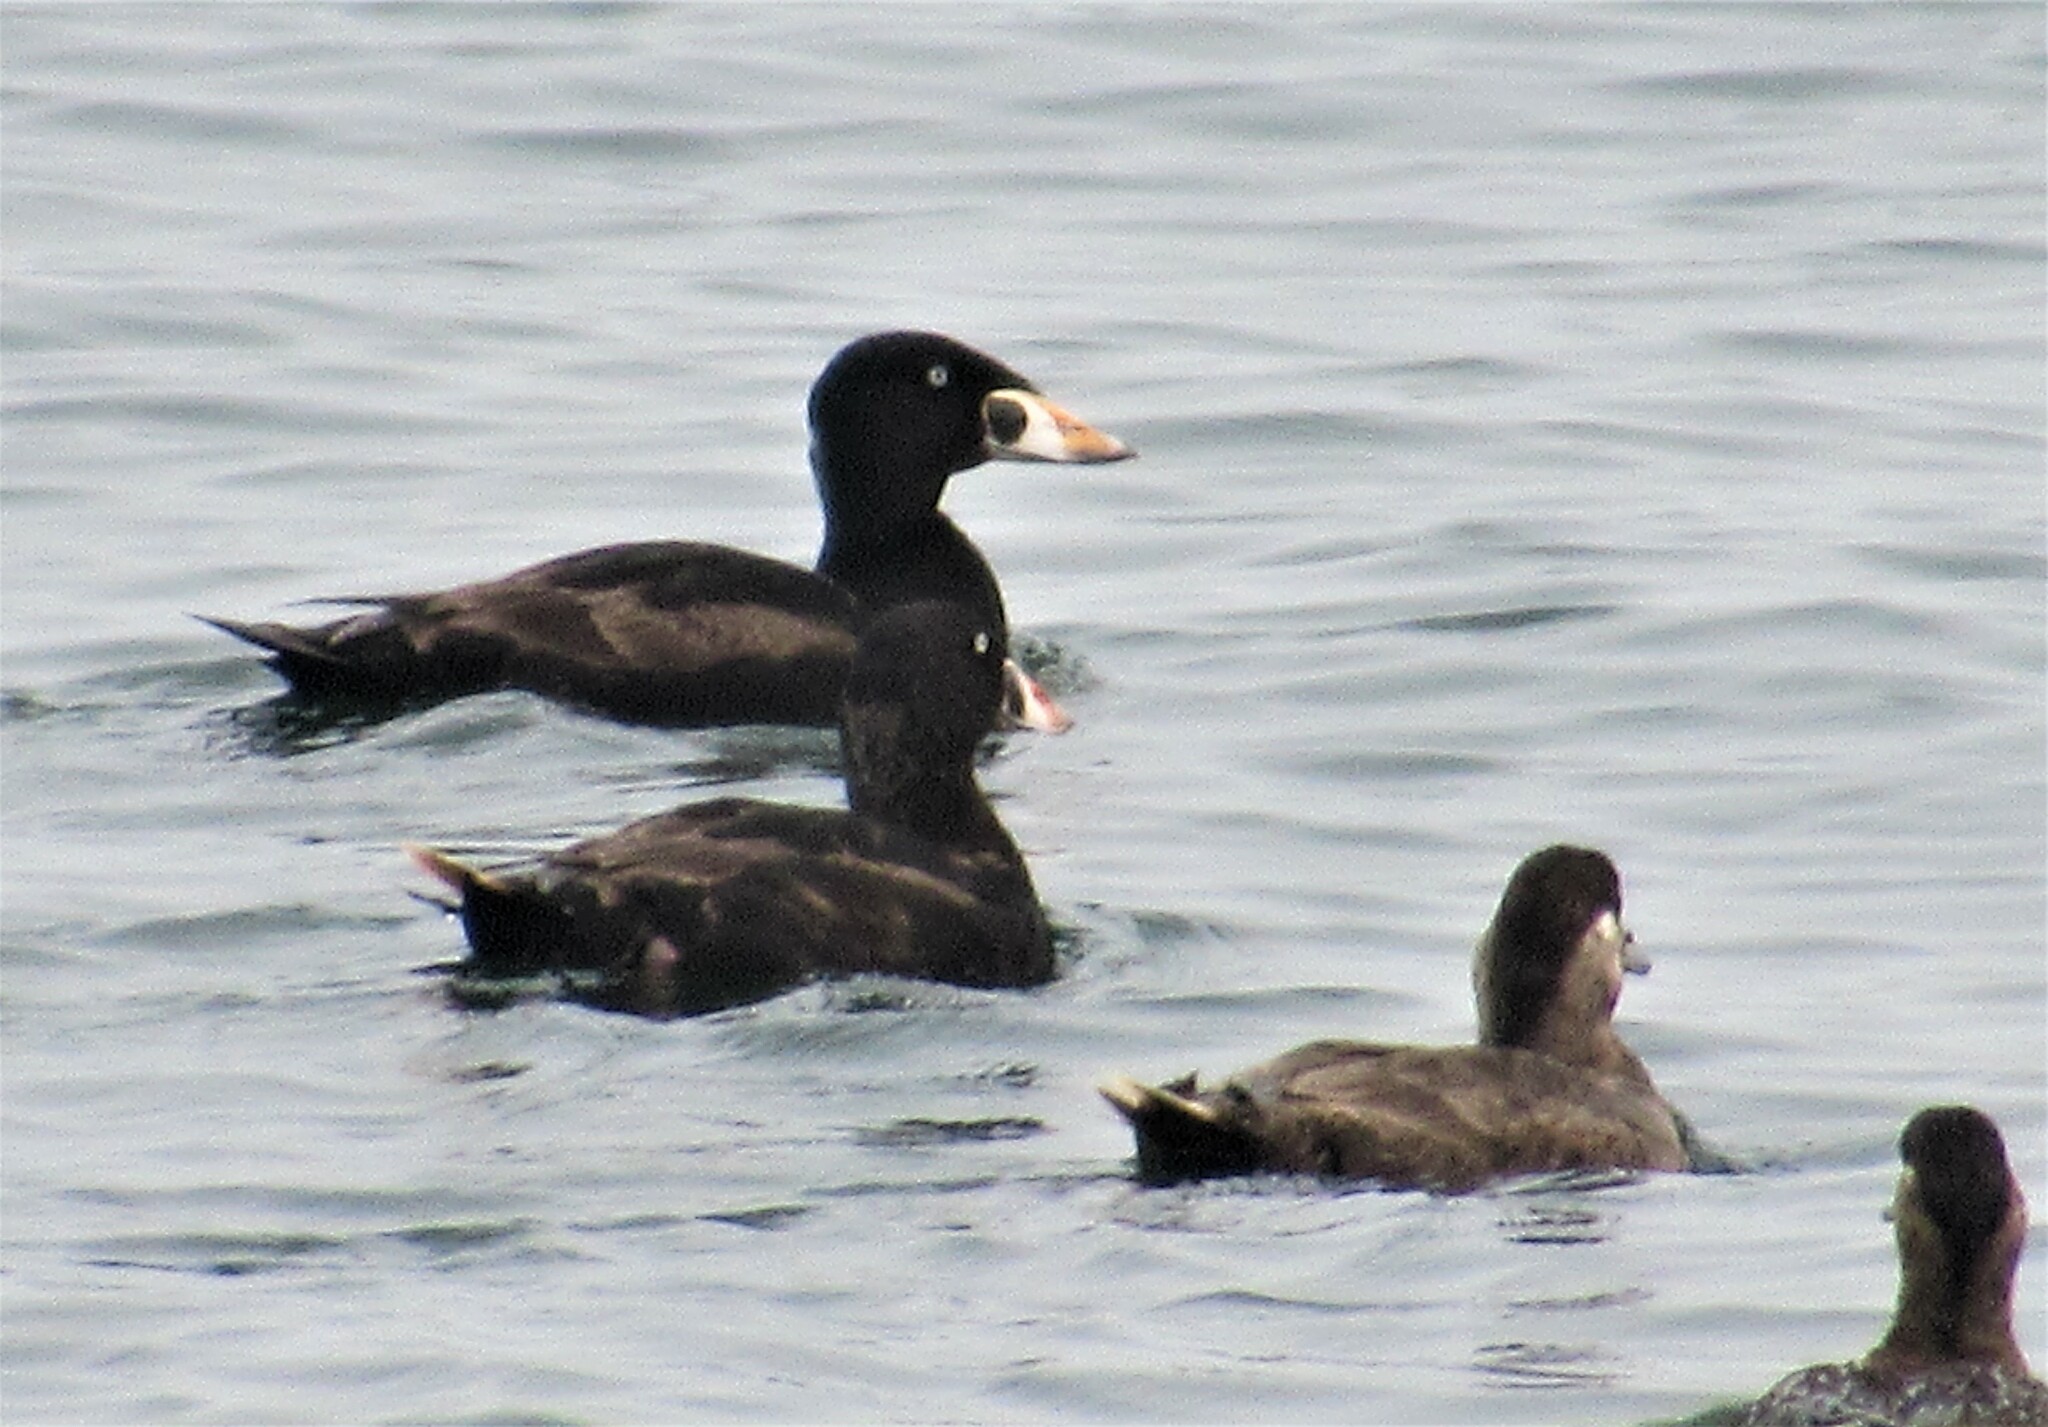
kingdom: Animalia
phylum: Chordata
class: Aves
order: Anseriformes
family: Anatidae
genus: Melanitta
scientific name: Melanitta perspicillata
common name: Surf scoter
